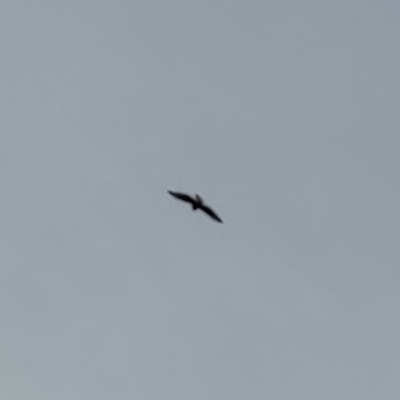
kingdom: Animalia
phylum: Chordata
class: Aves
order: Accipitriformes
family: Accipitridae
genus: Buteo
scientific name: Buteo buteo
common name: Common buzzard
